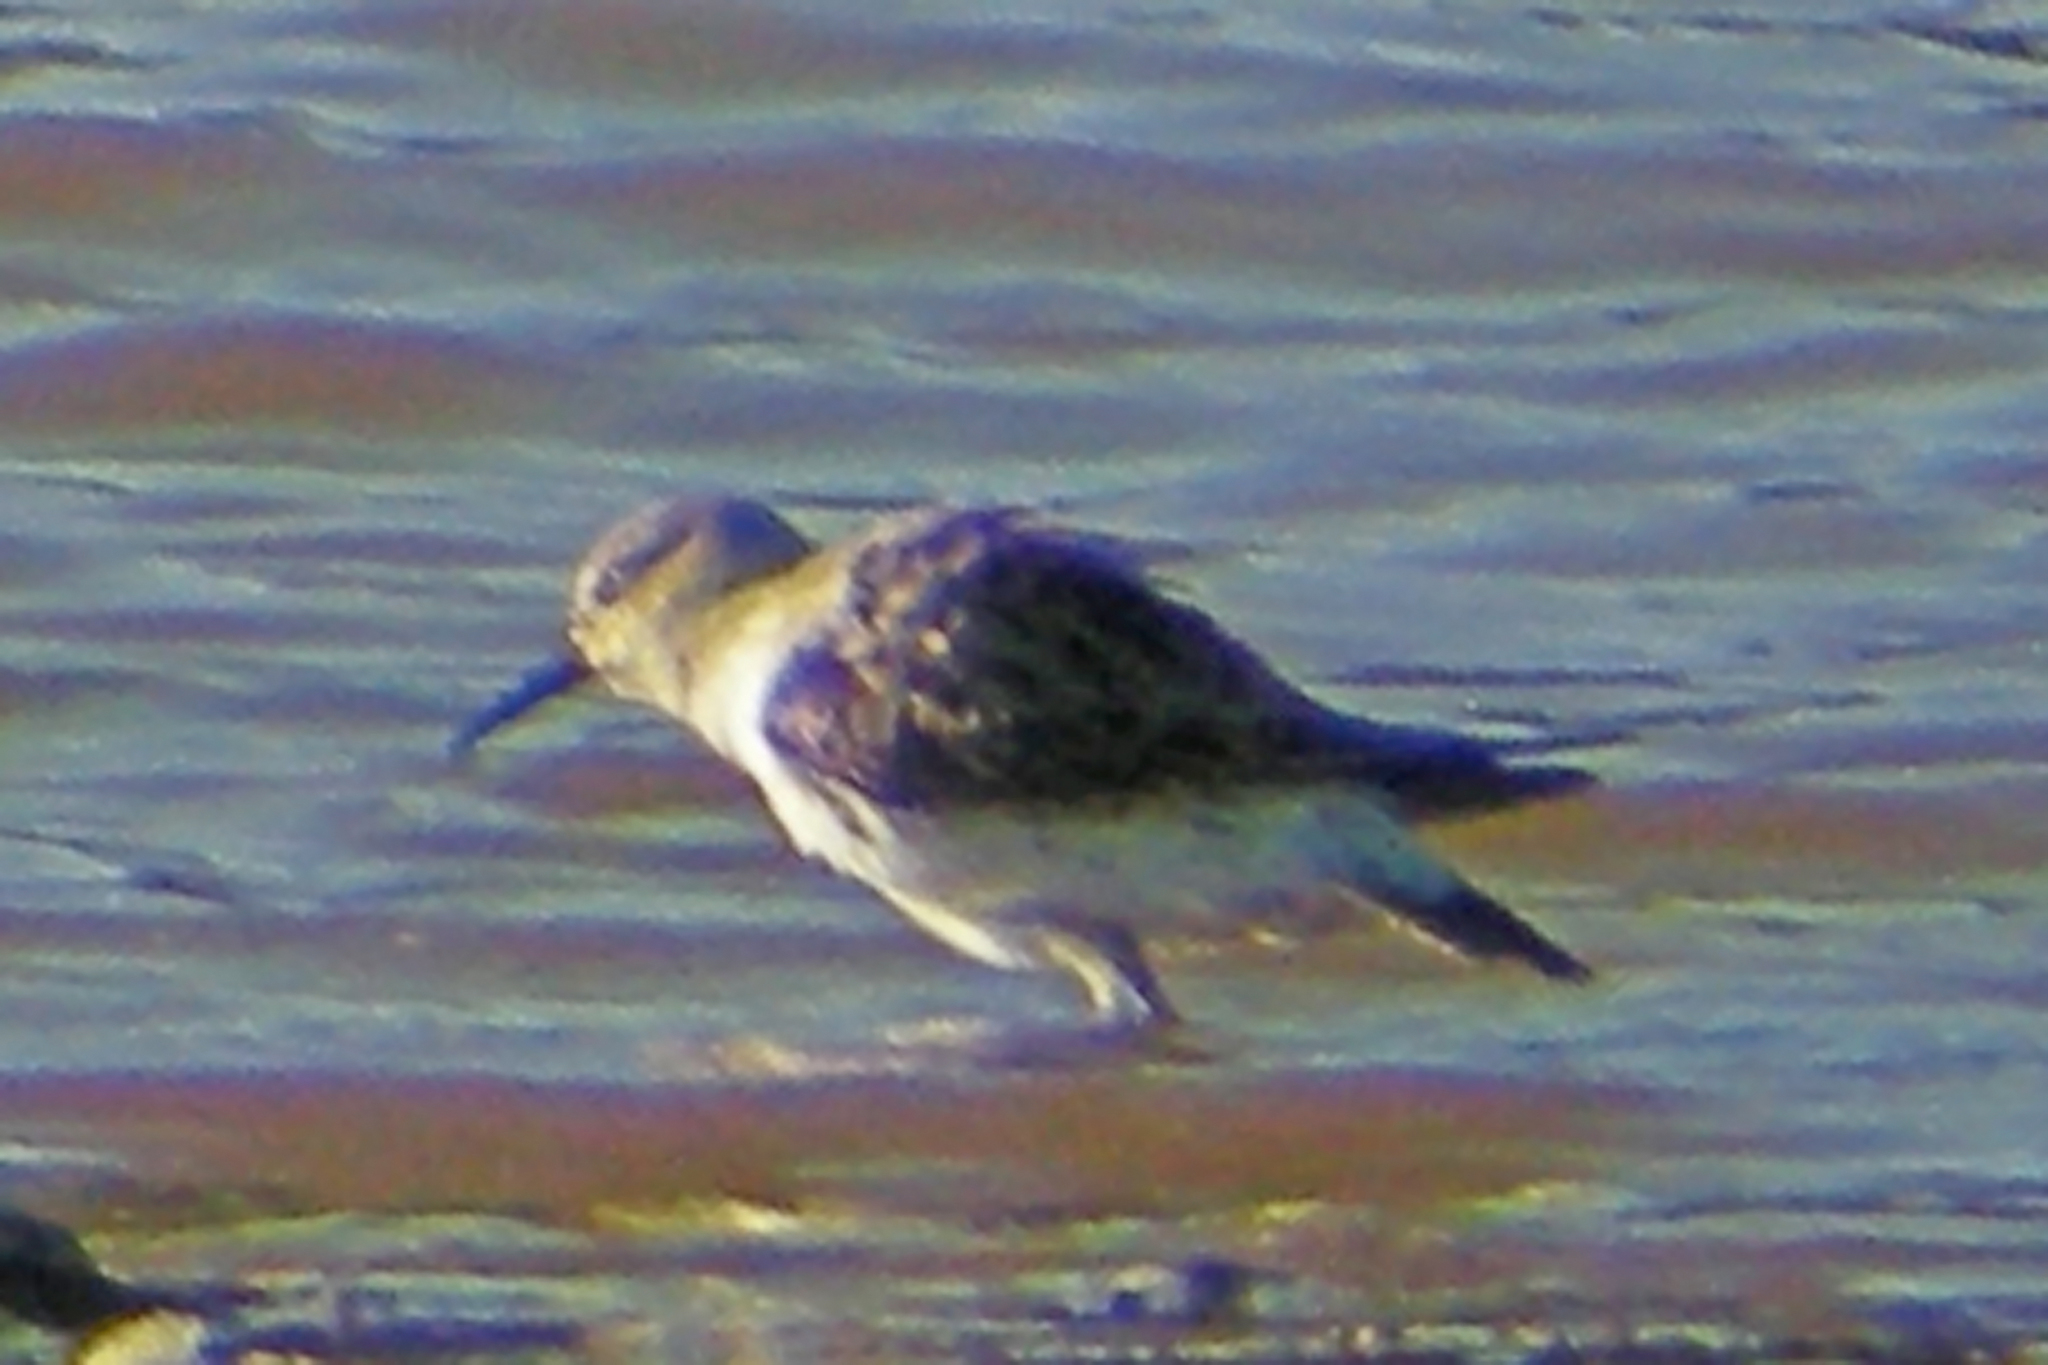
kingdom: Animalia
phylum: Chordata
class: Aves
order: Charadriiformes
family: Scolopacidae
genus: Calidris
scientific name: Calidris fuscicollis
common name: White-rumped sandpiper
